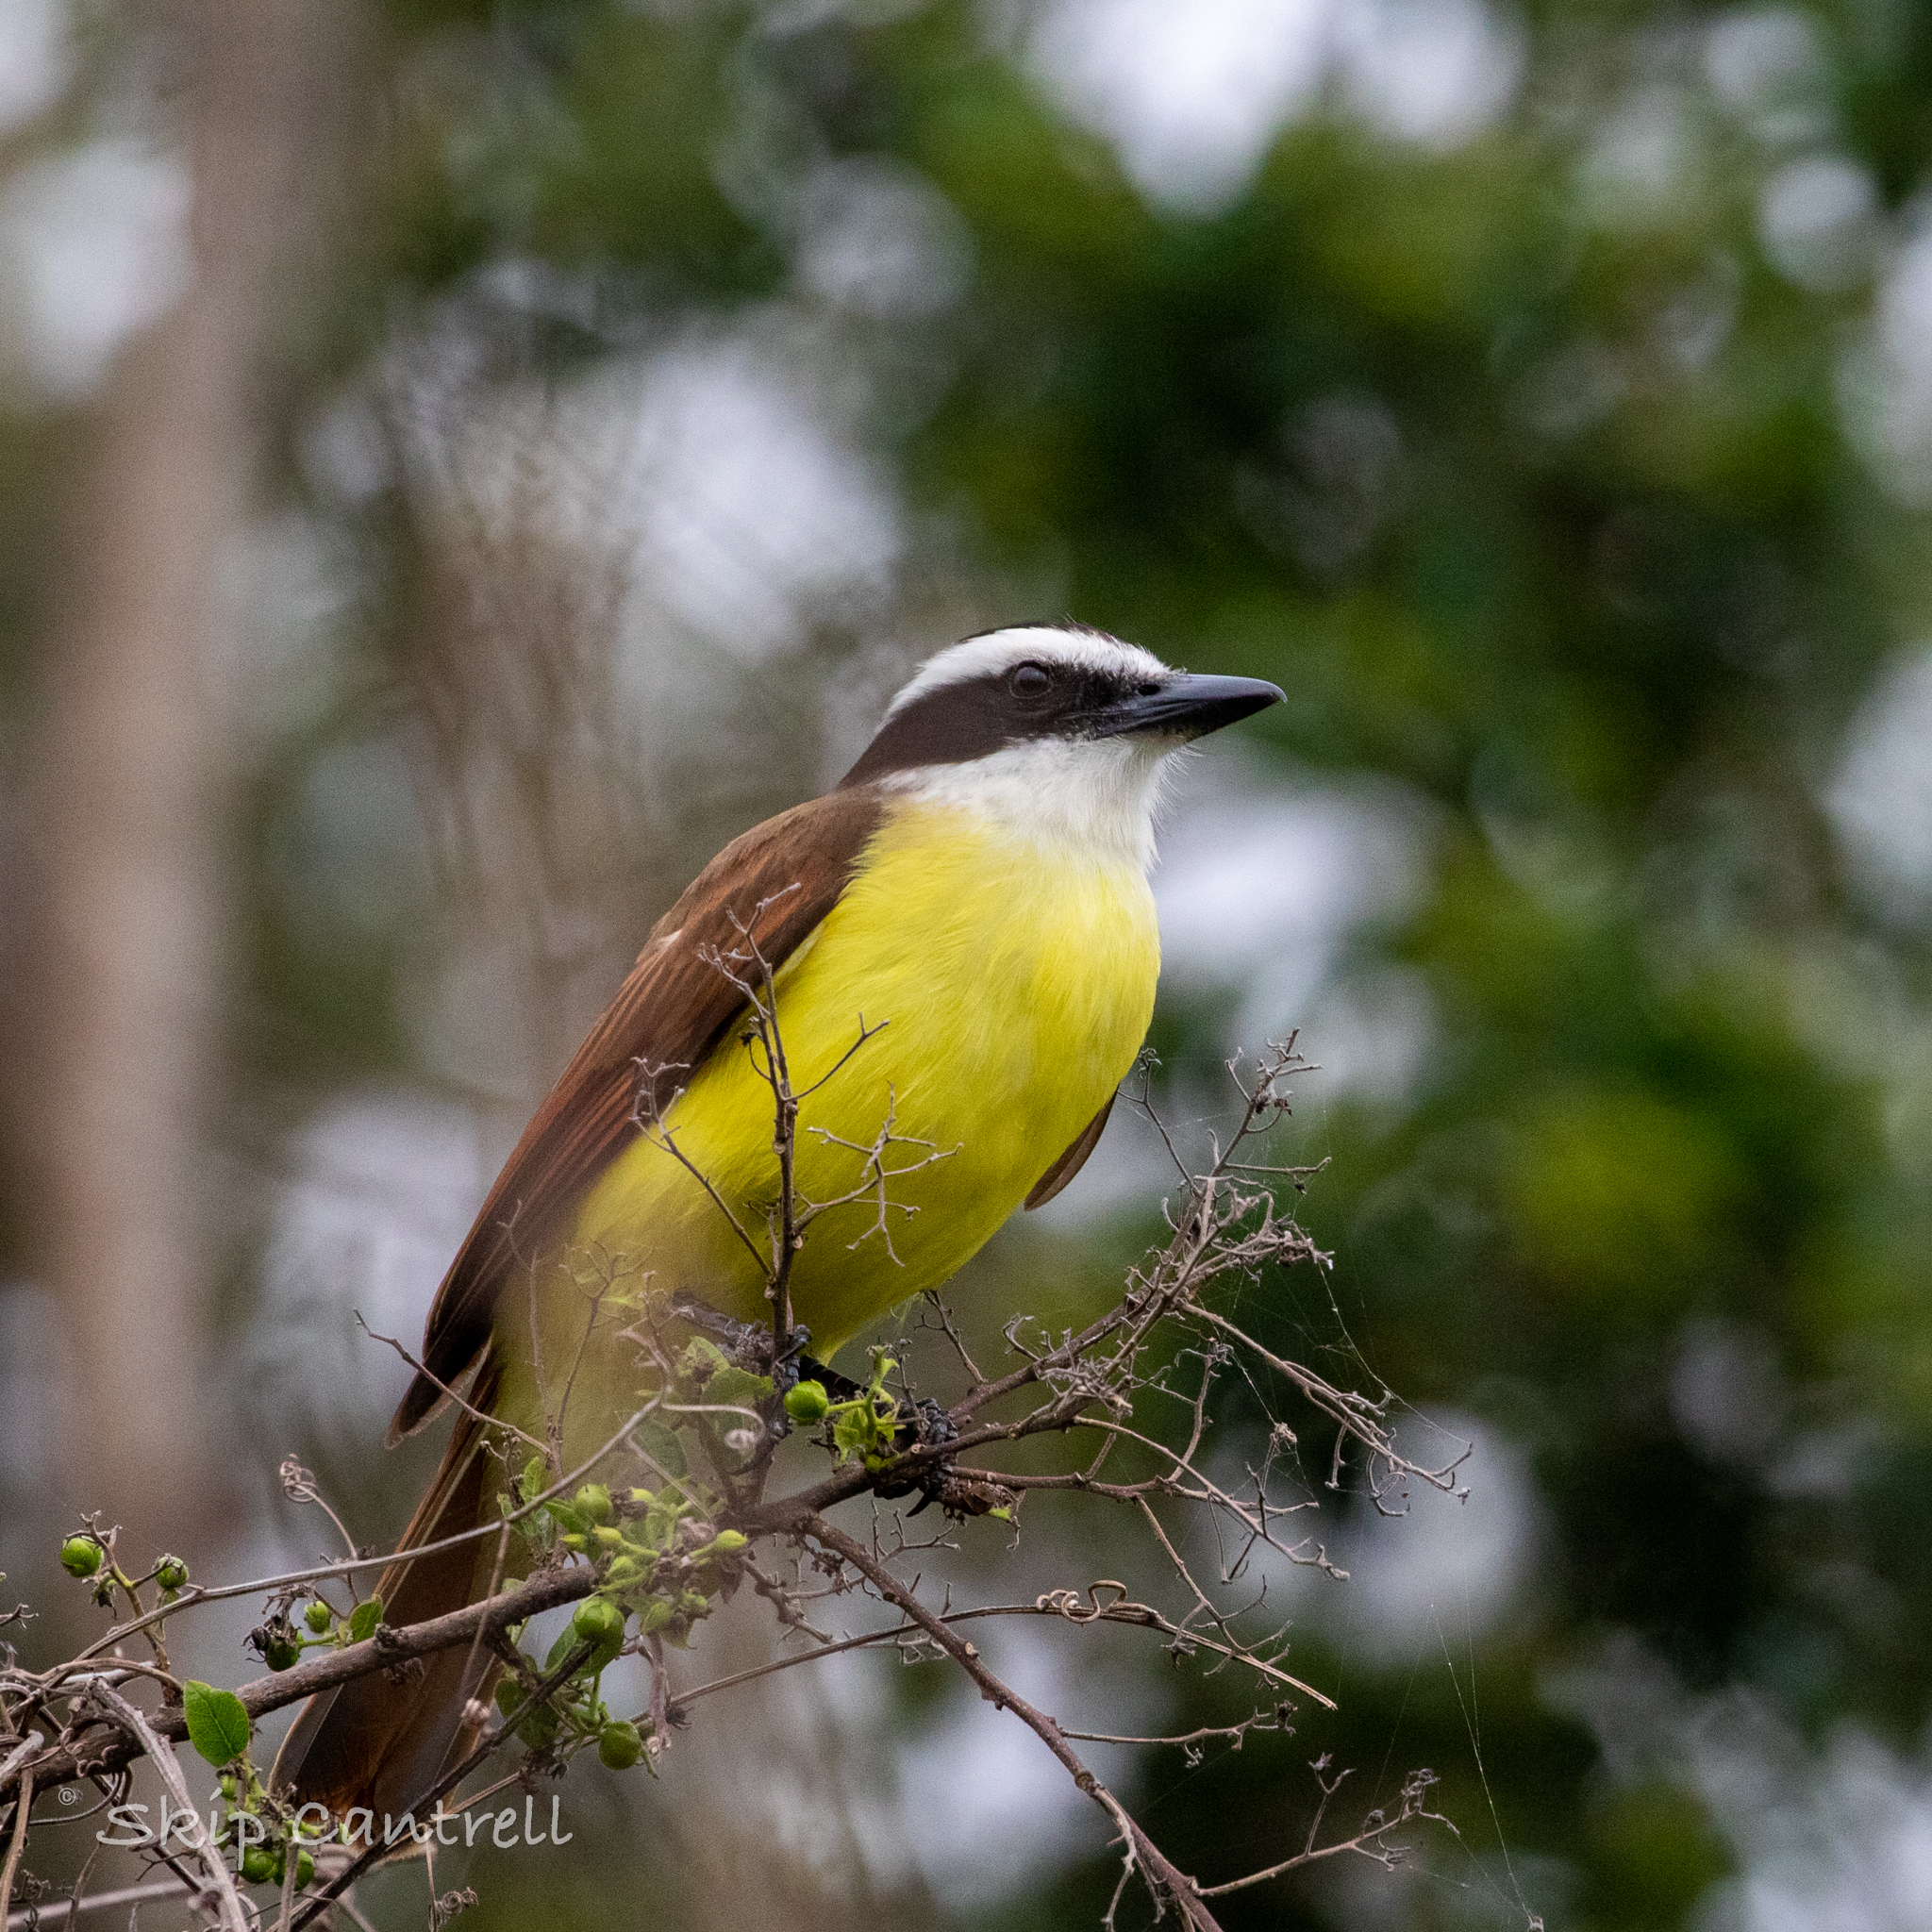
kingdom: Animalia
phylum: Chordata
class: Aves
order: Passeriformes
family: Tyrannidae
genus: Pitangus
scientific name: Pitangus sulphuratus
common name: Great kiskadee
